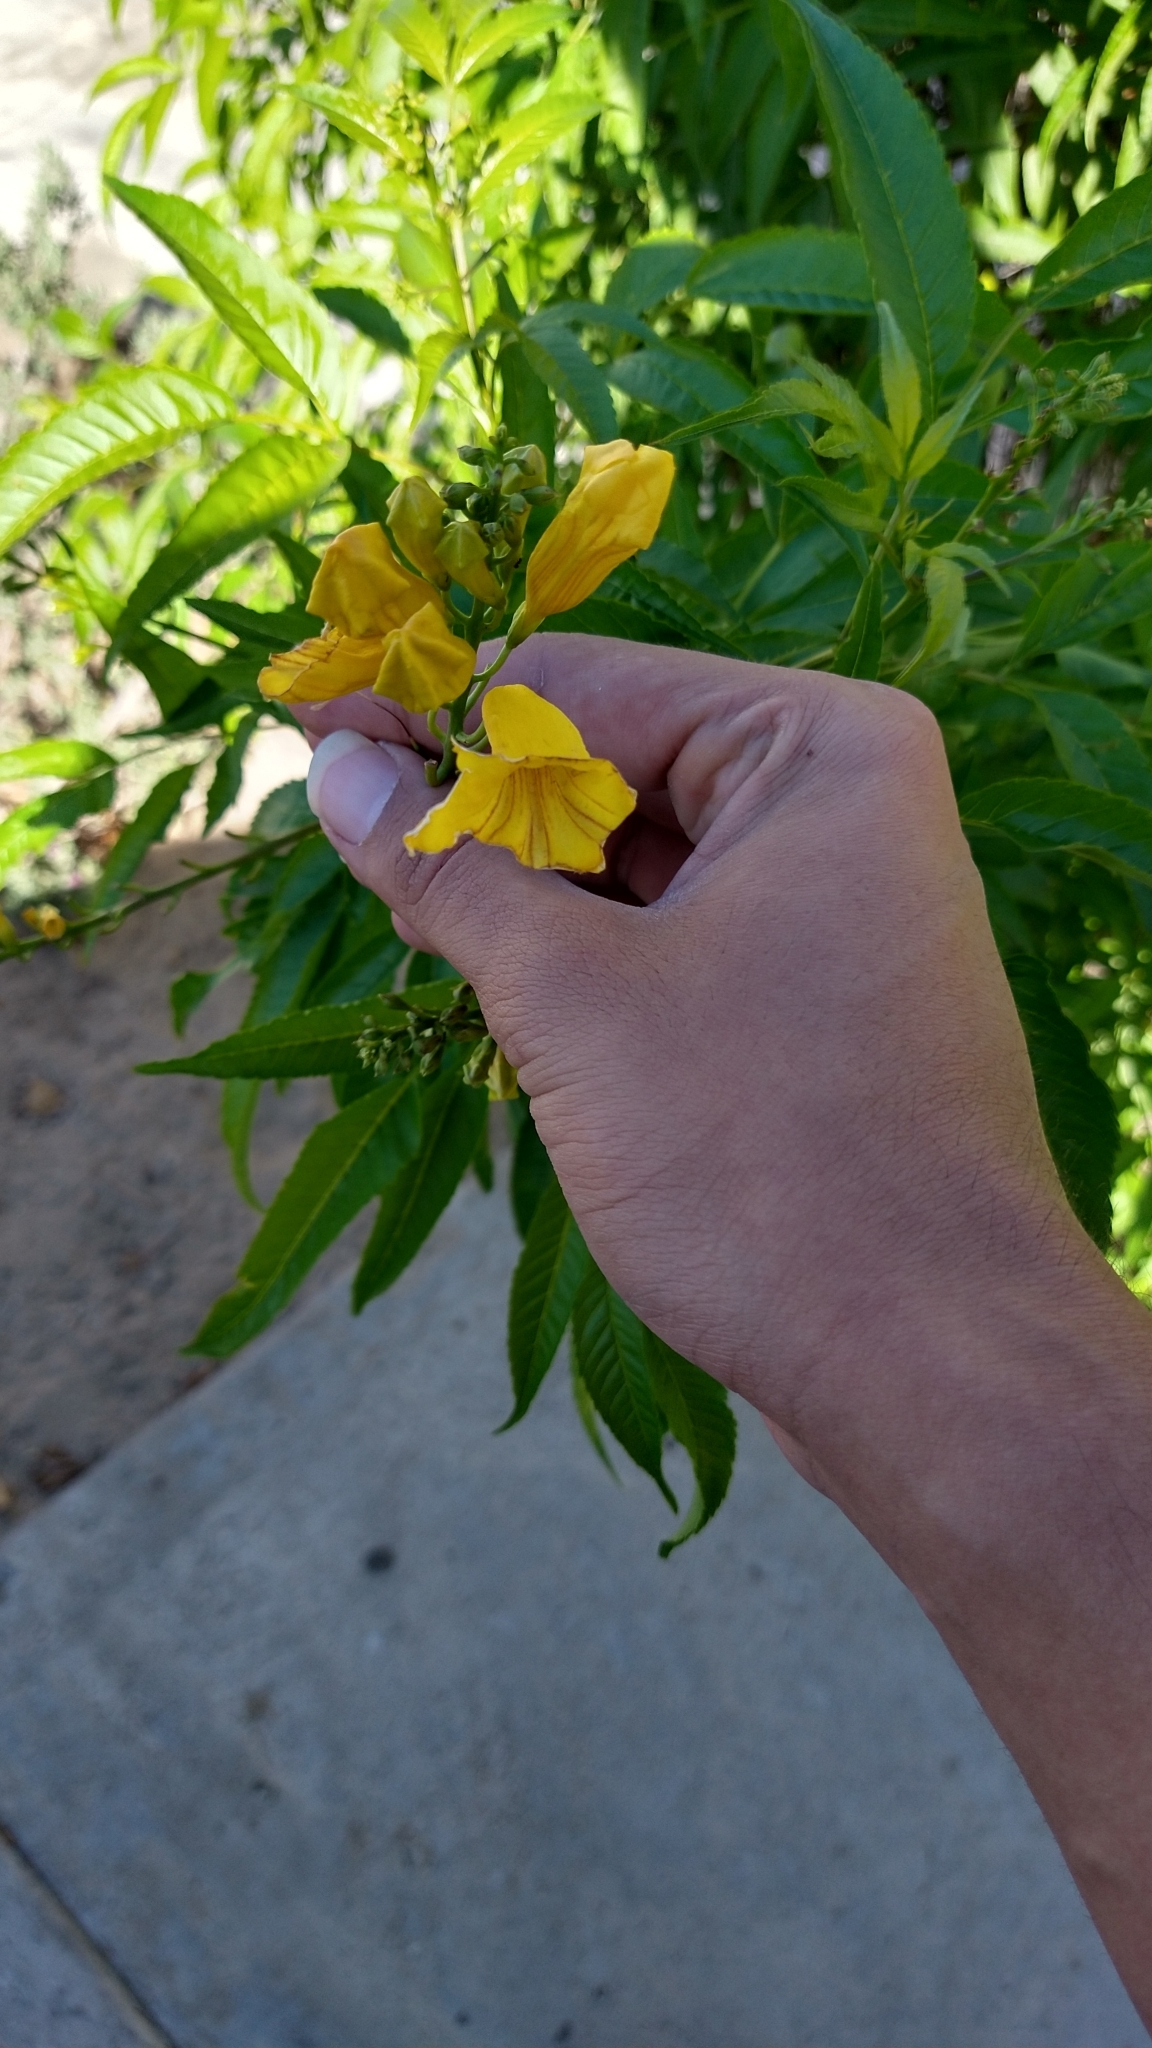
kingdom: Plantae
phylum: Tracheophyta
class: Magnoliopsida
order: Lamiales
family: Bignoniaceae
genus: Tecoma
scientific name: Tecoma stans
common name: Yellow trumpetbush
